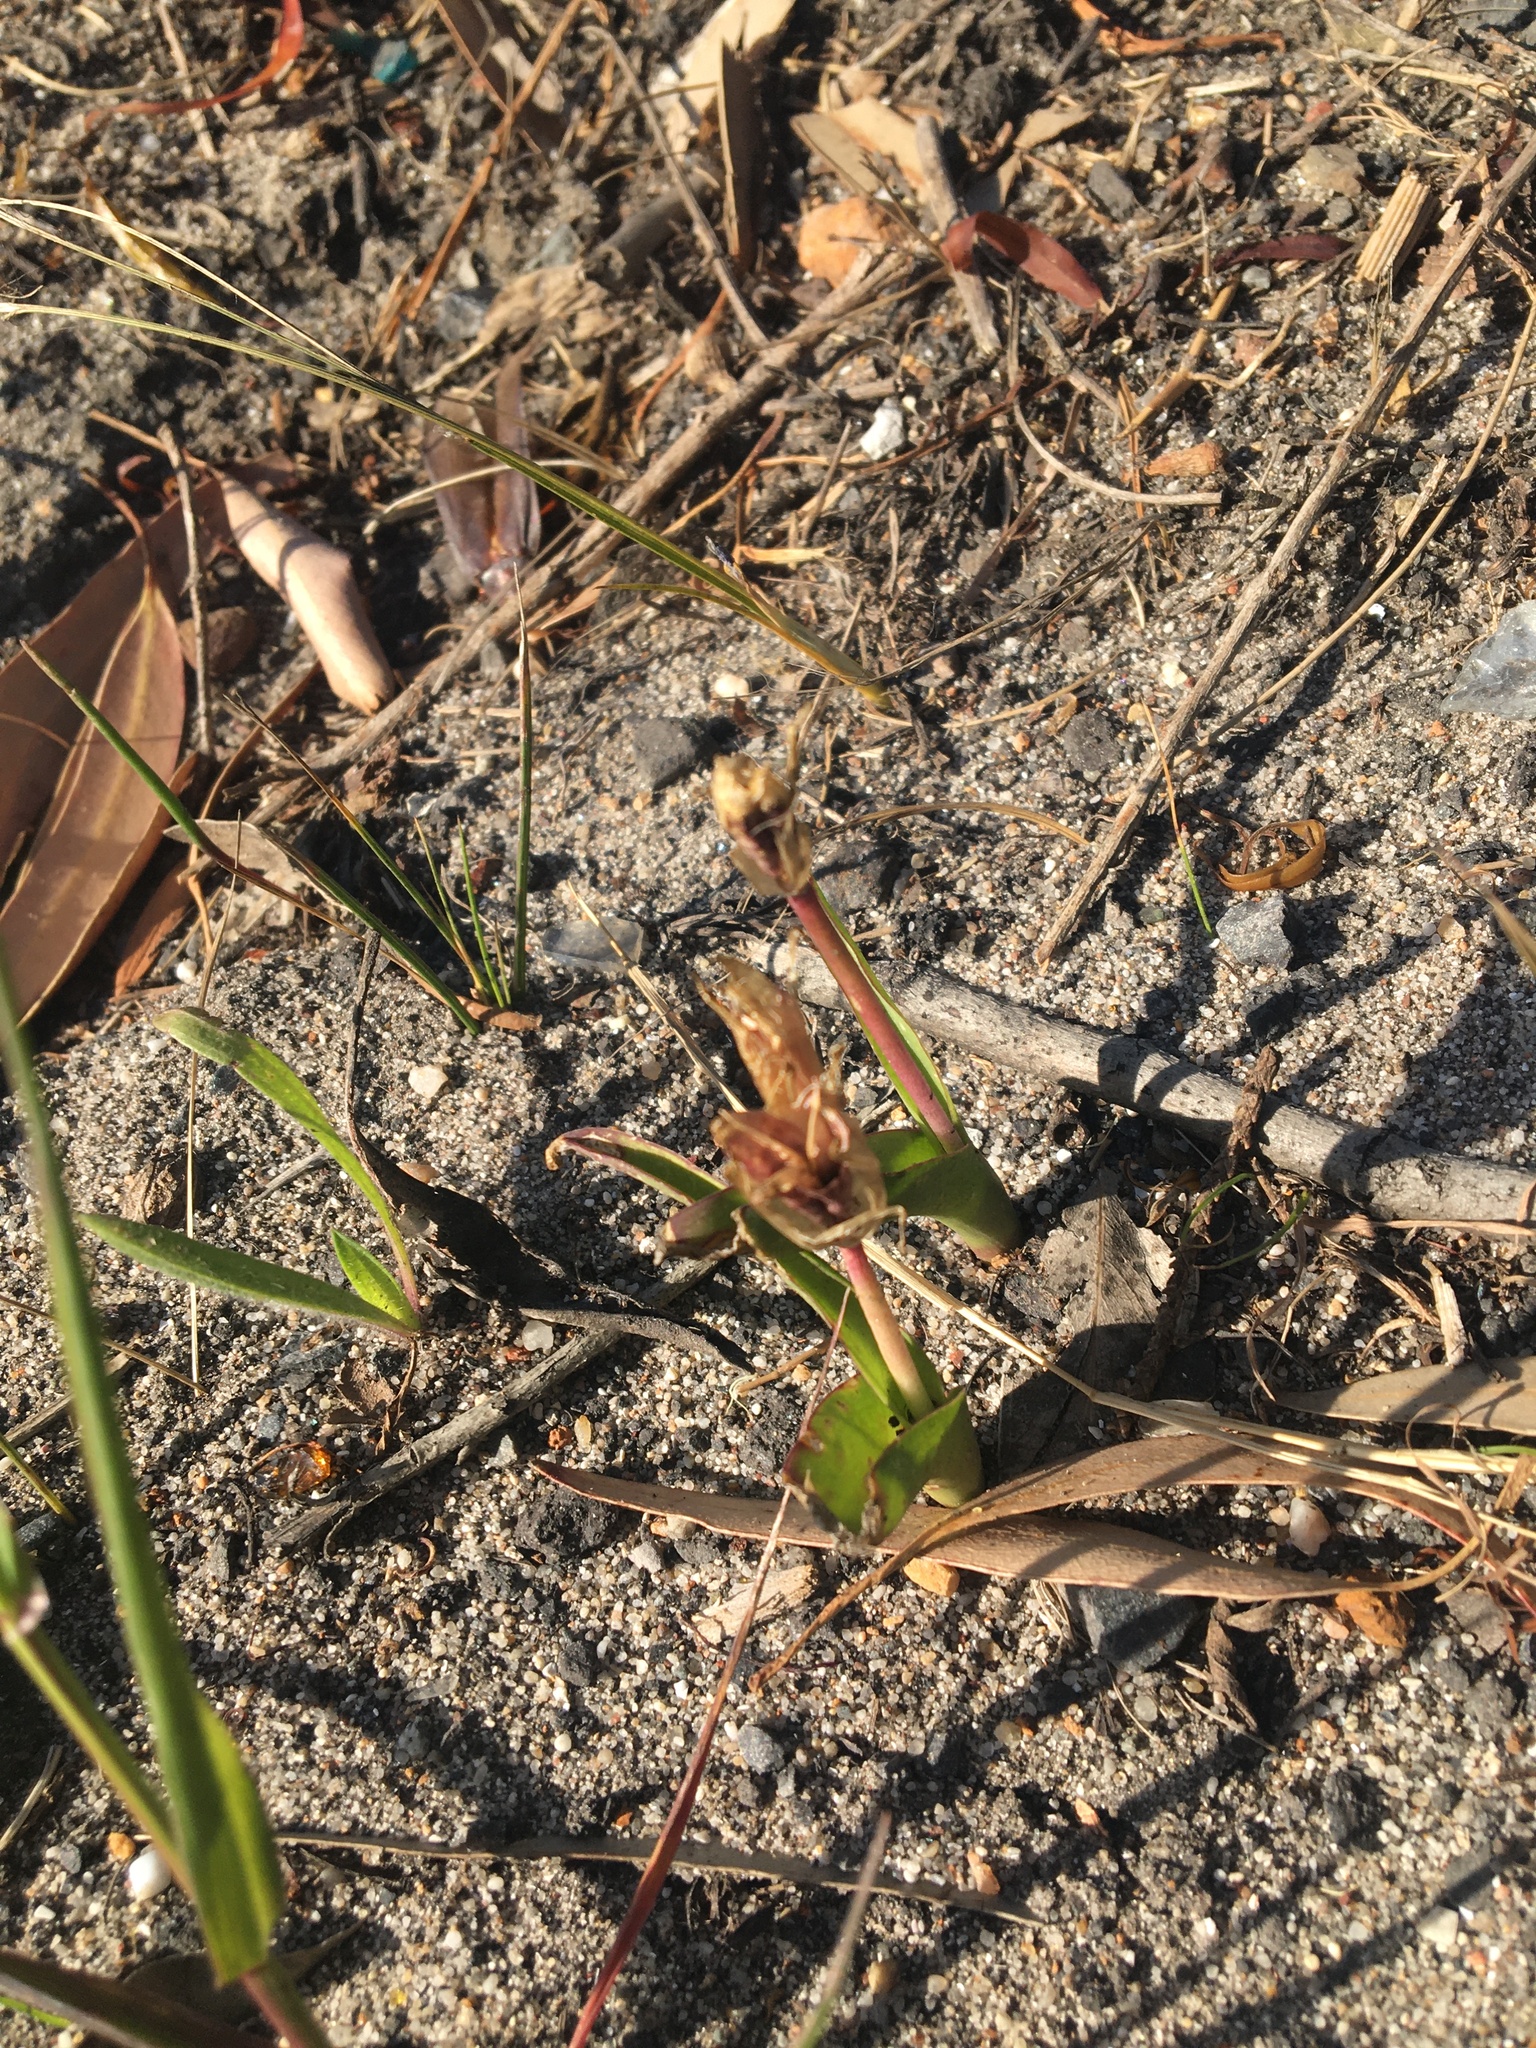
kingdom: Plantae
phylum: Tracheophyta
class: Liliopsida
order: Asparagales
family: Asparagaceae
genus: Lachenalia
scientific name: Lachenalia reflexa
